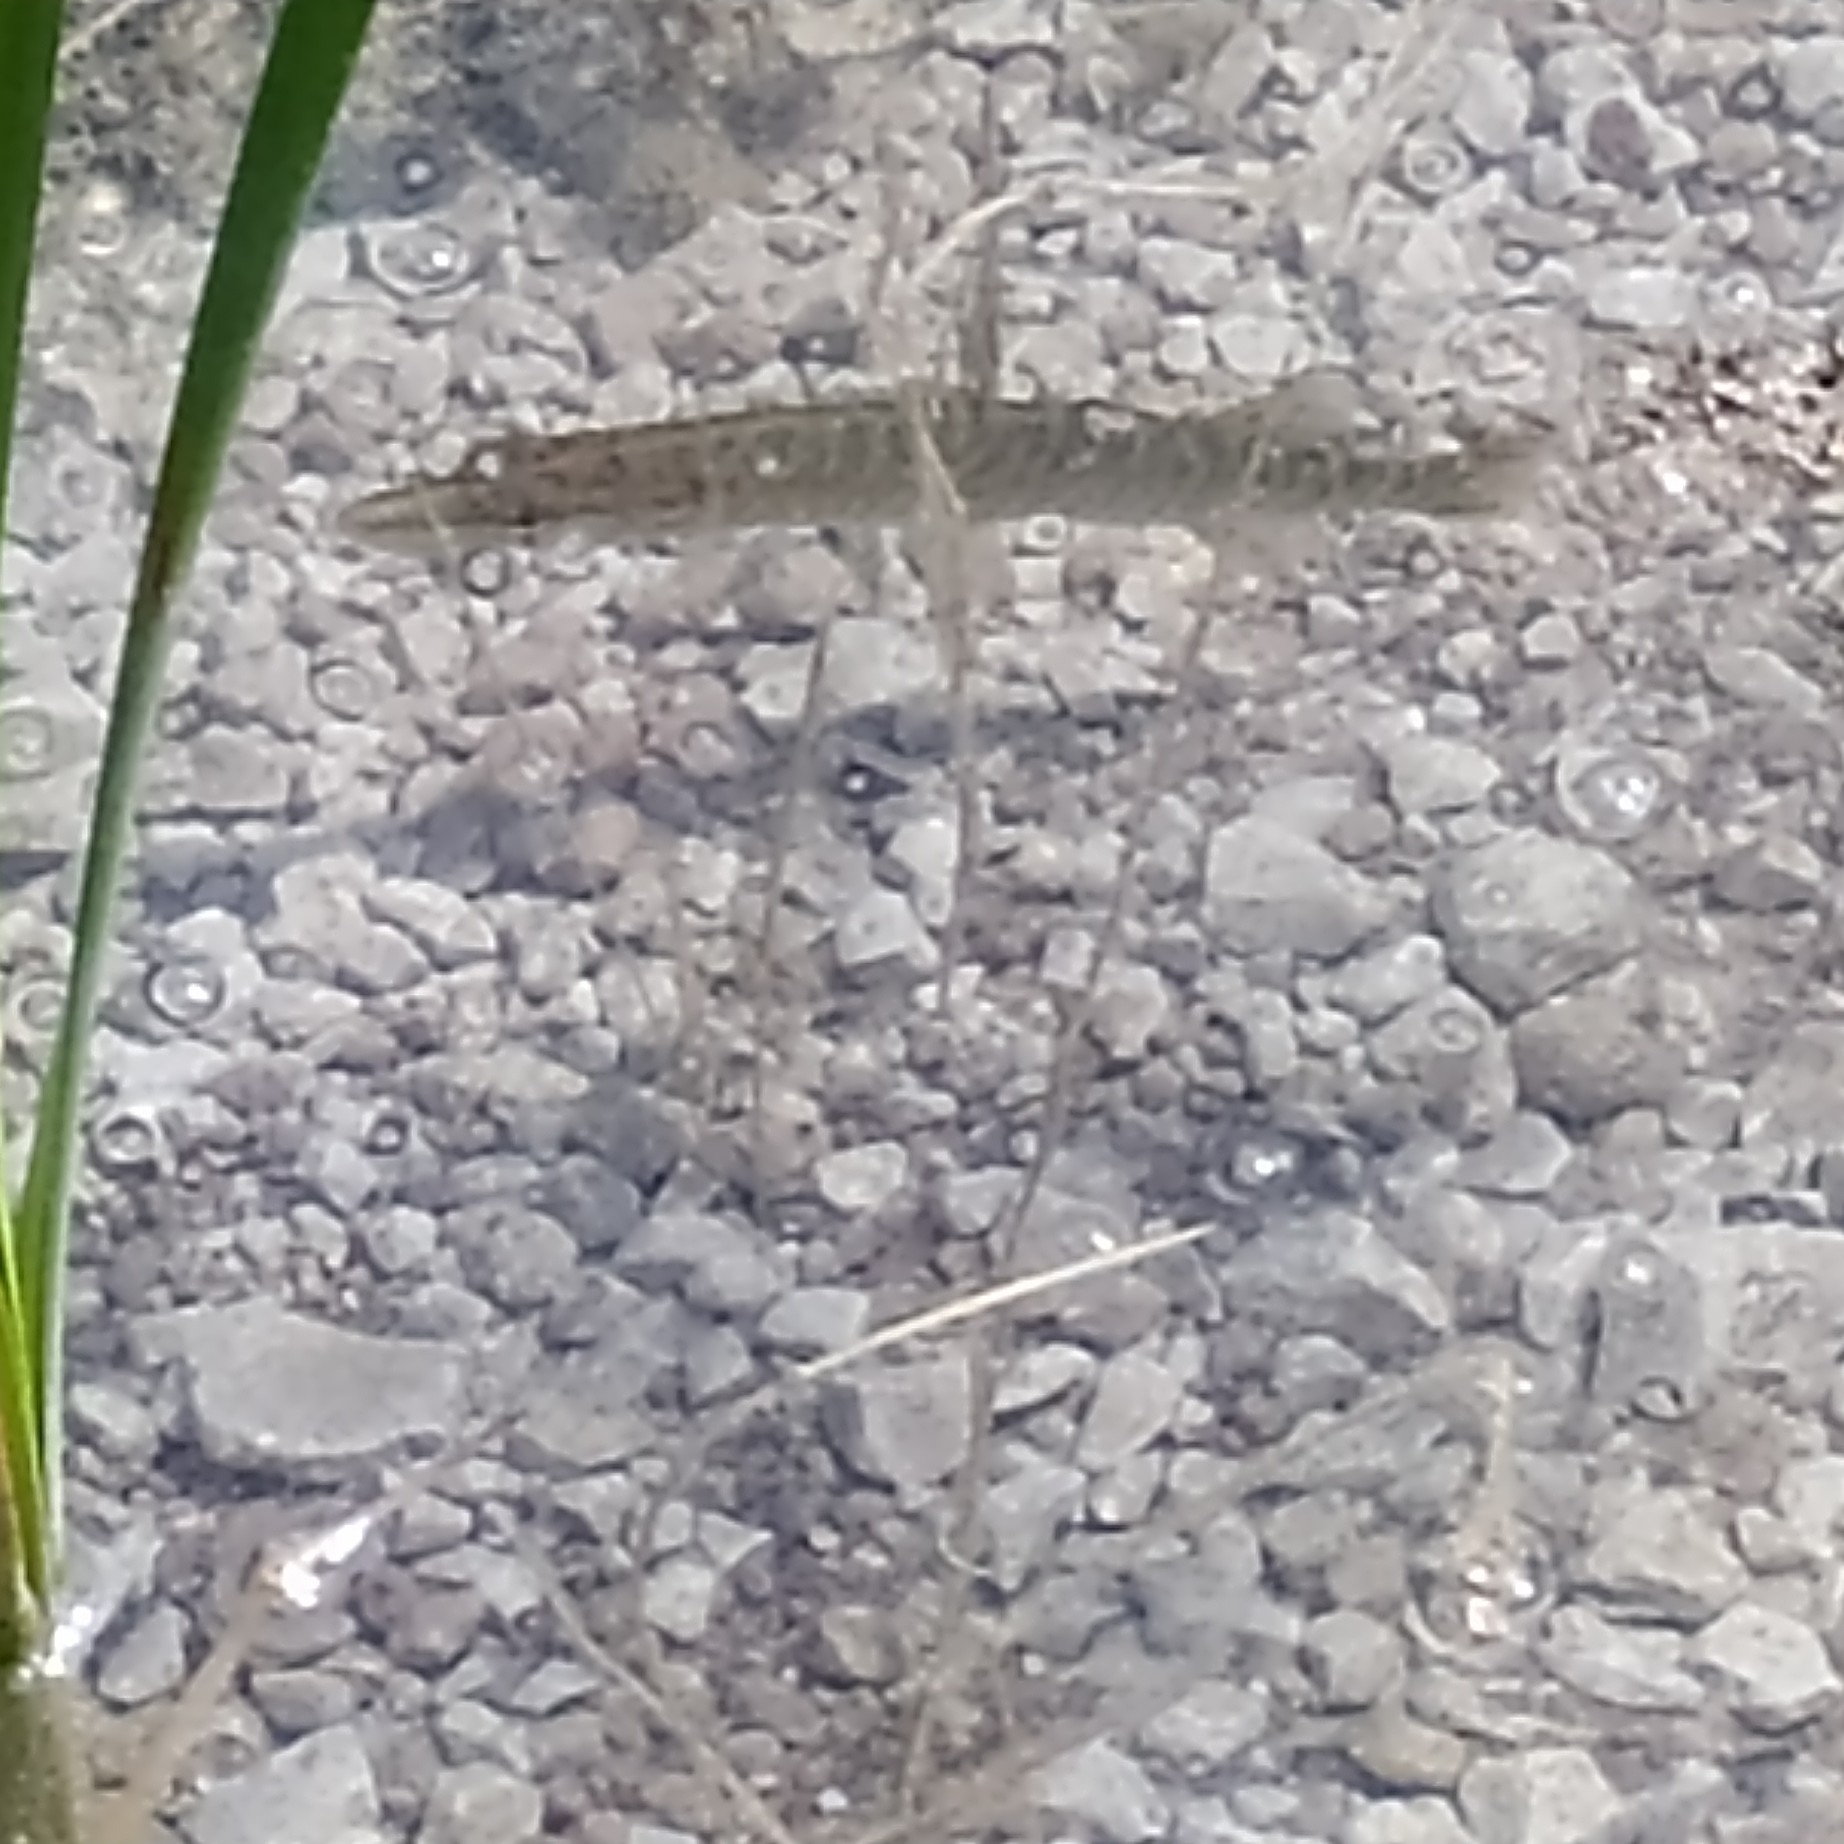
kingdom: Animalia
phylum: Chordata
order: Esociformes
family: Esocidae
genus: Esox
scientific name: Esox lucius
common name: Northern pike
